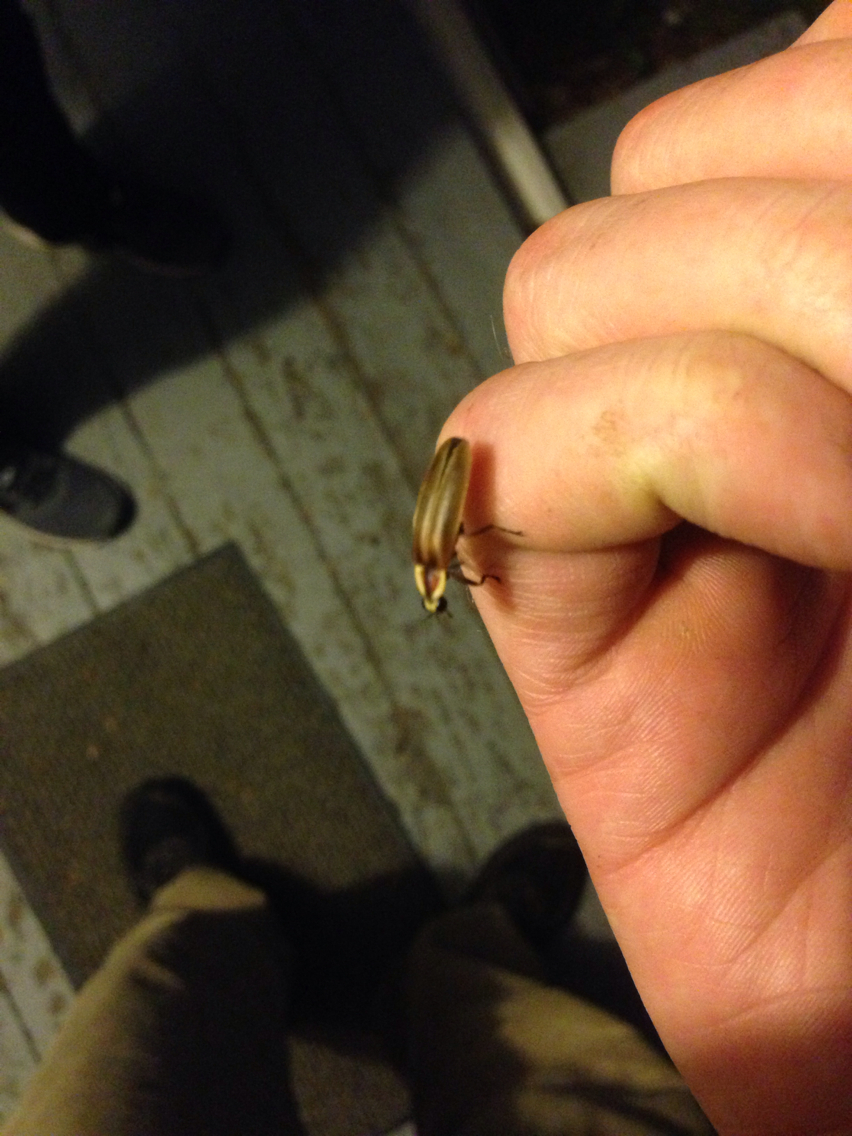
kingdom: Animalia
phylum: Arthropoda
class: Insecta
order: Coleoptera
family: Lampyridae
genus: Photuris
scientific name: Photuris
